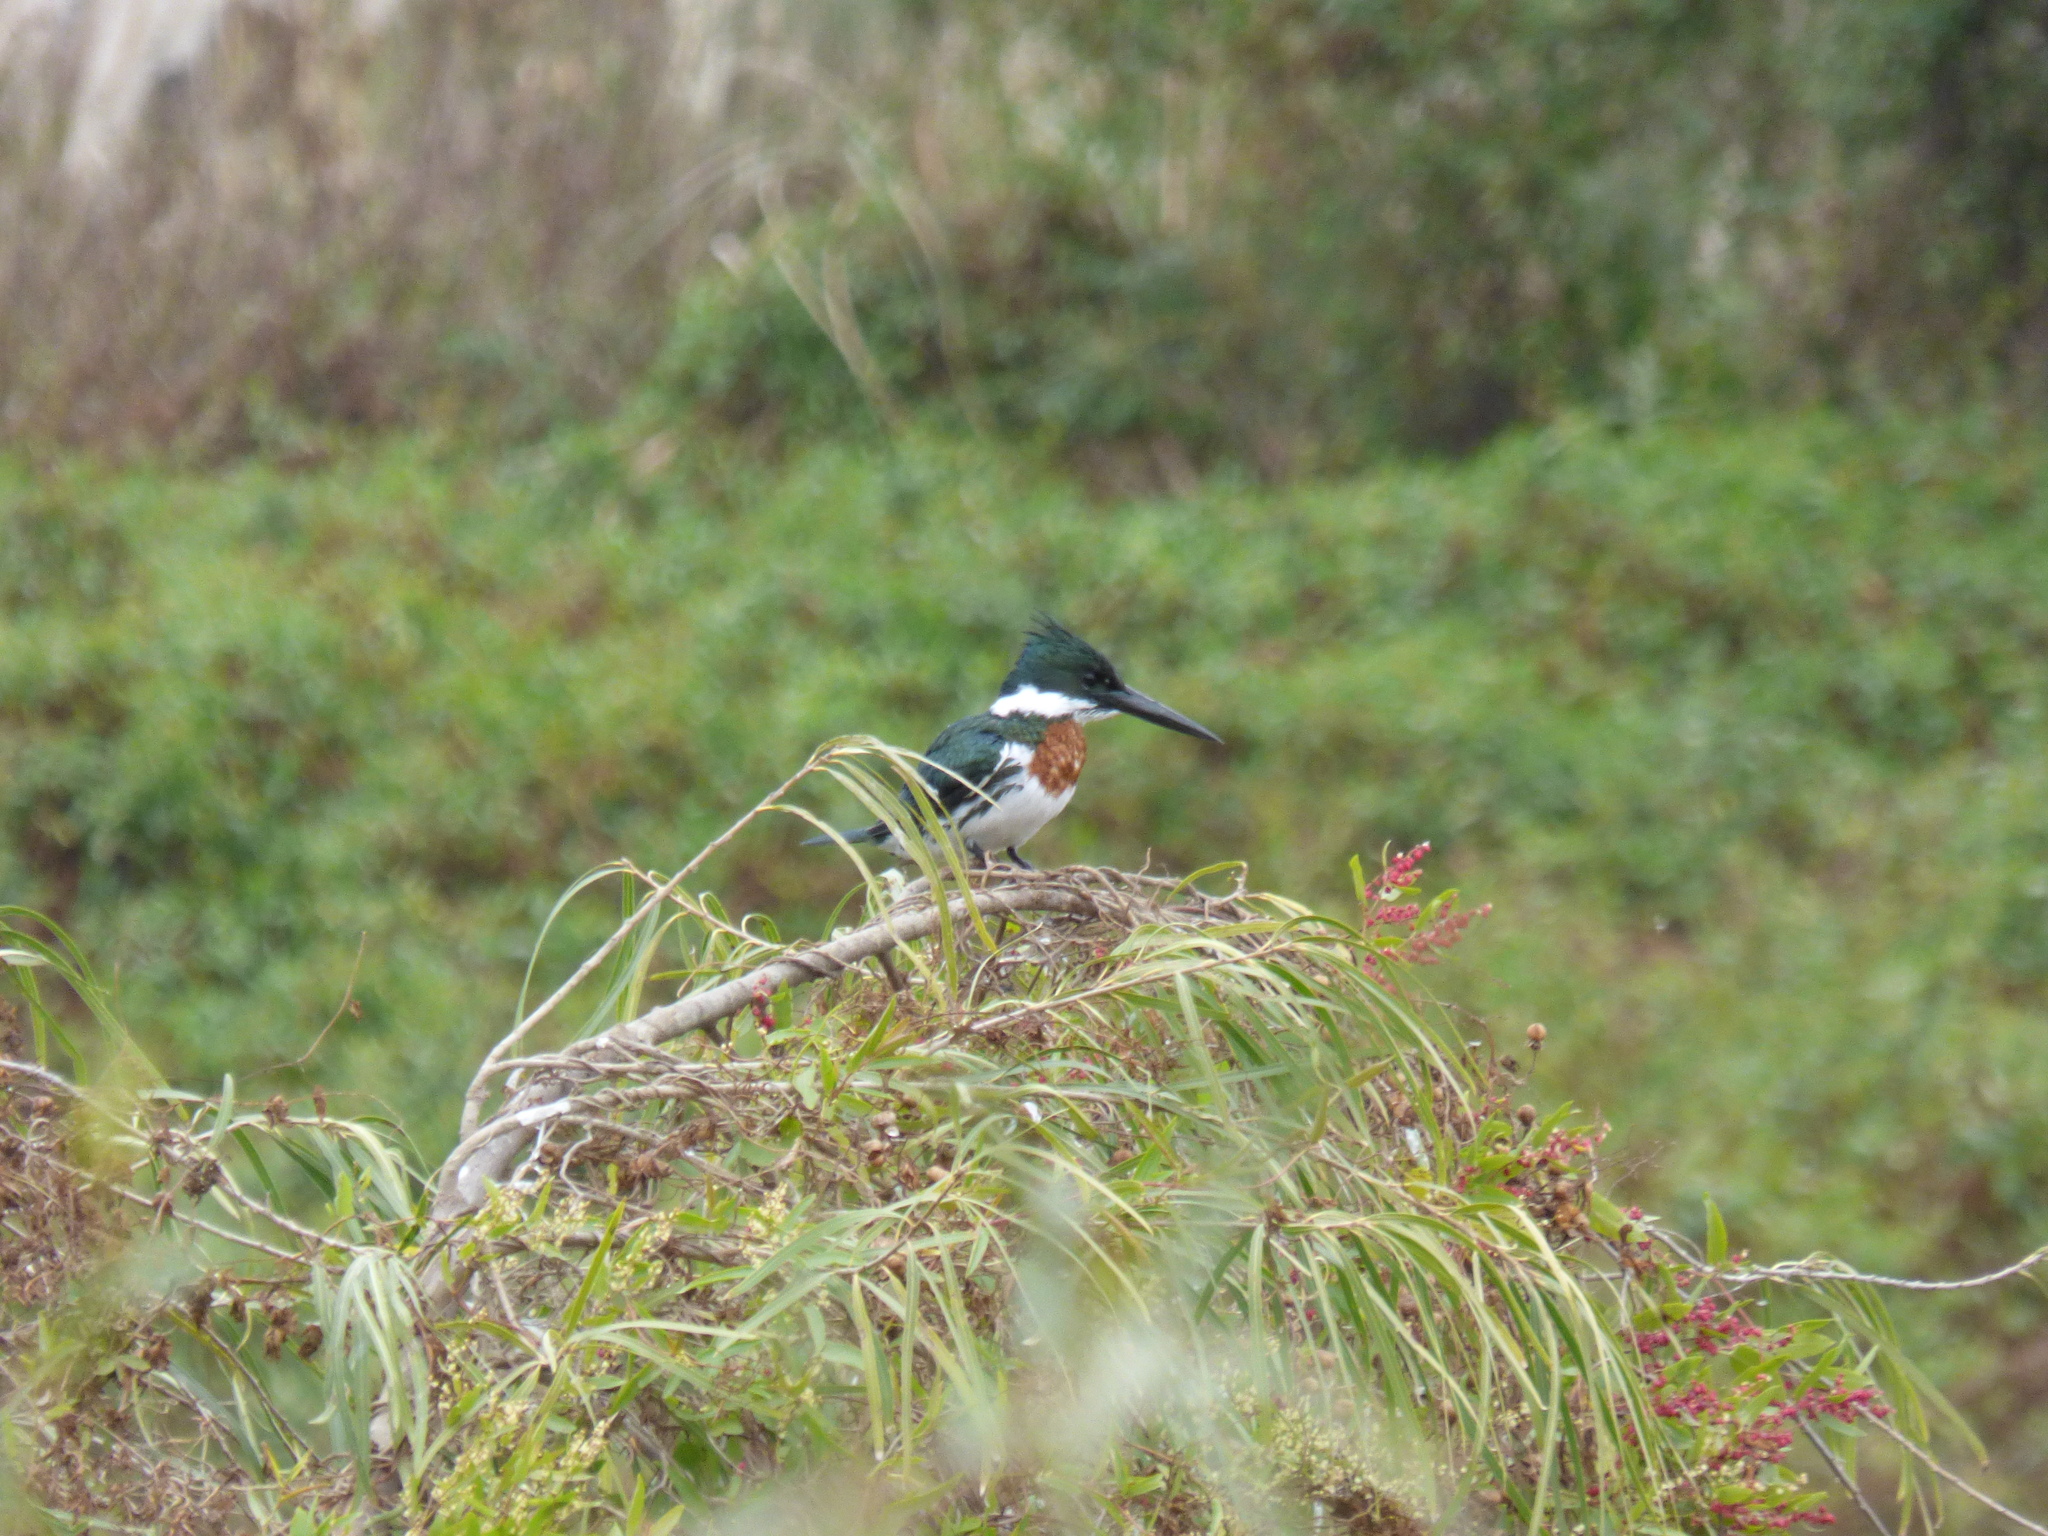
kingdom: Animalia
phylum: Chordata
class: Aves
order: Coraciiformes
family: Alcedinidae
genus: Chloroceryle
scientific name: Chloroceryle amazona
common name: Amazon kingfisher
